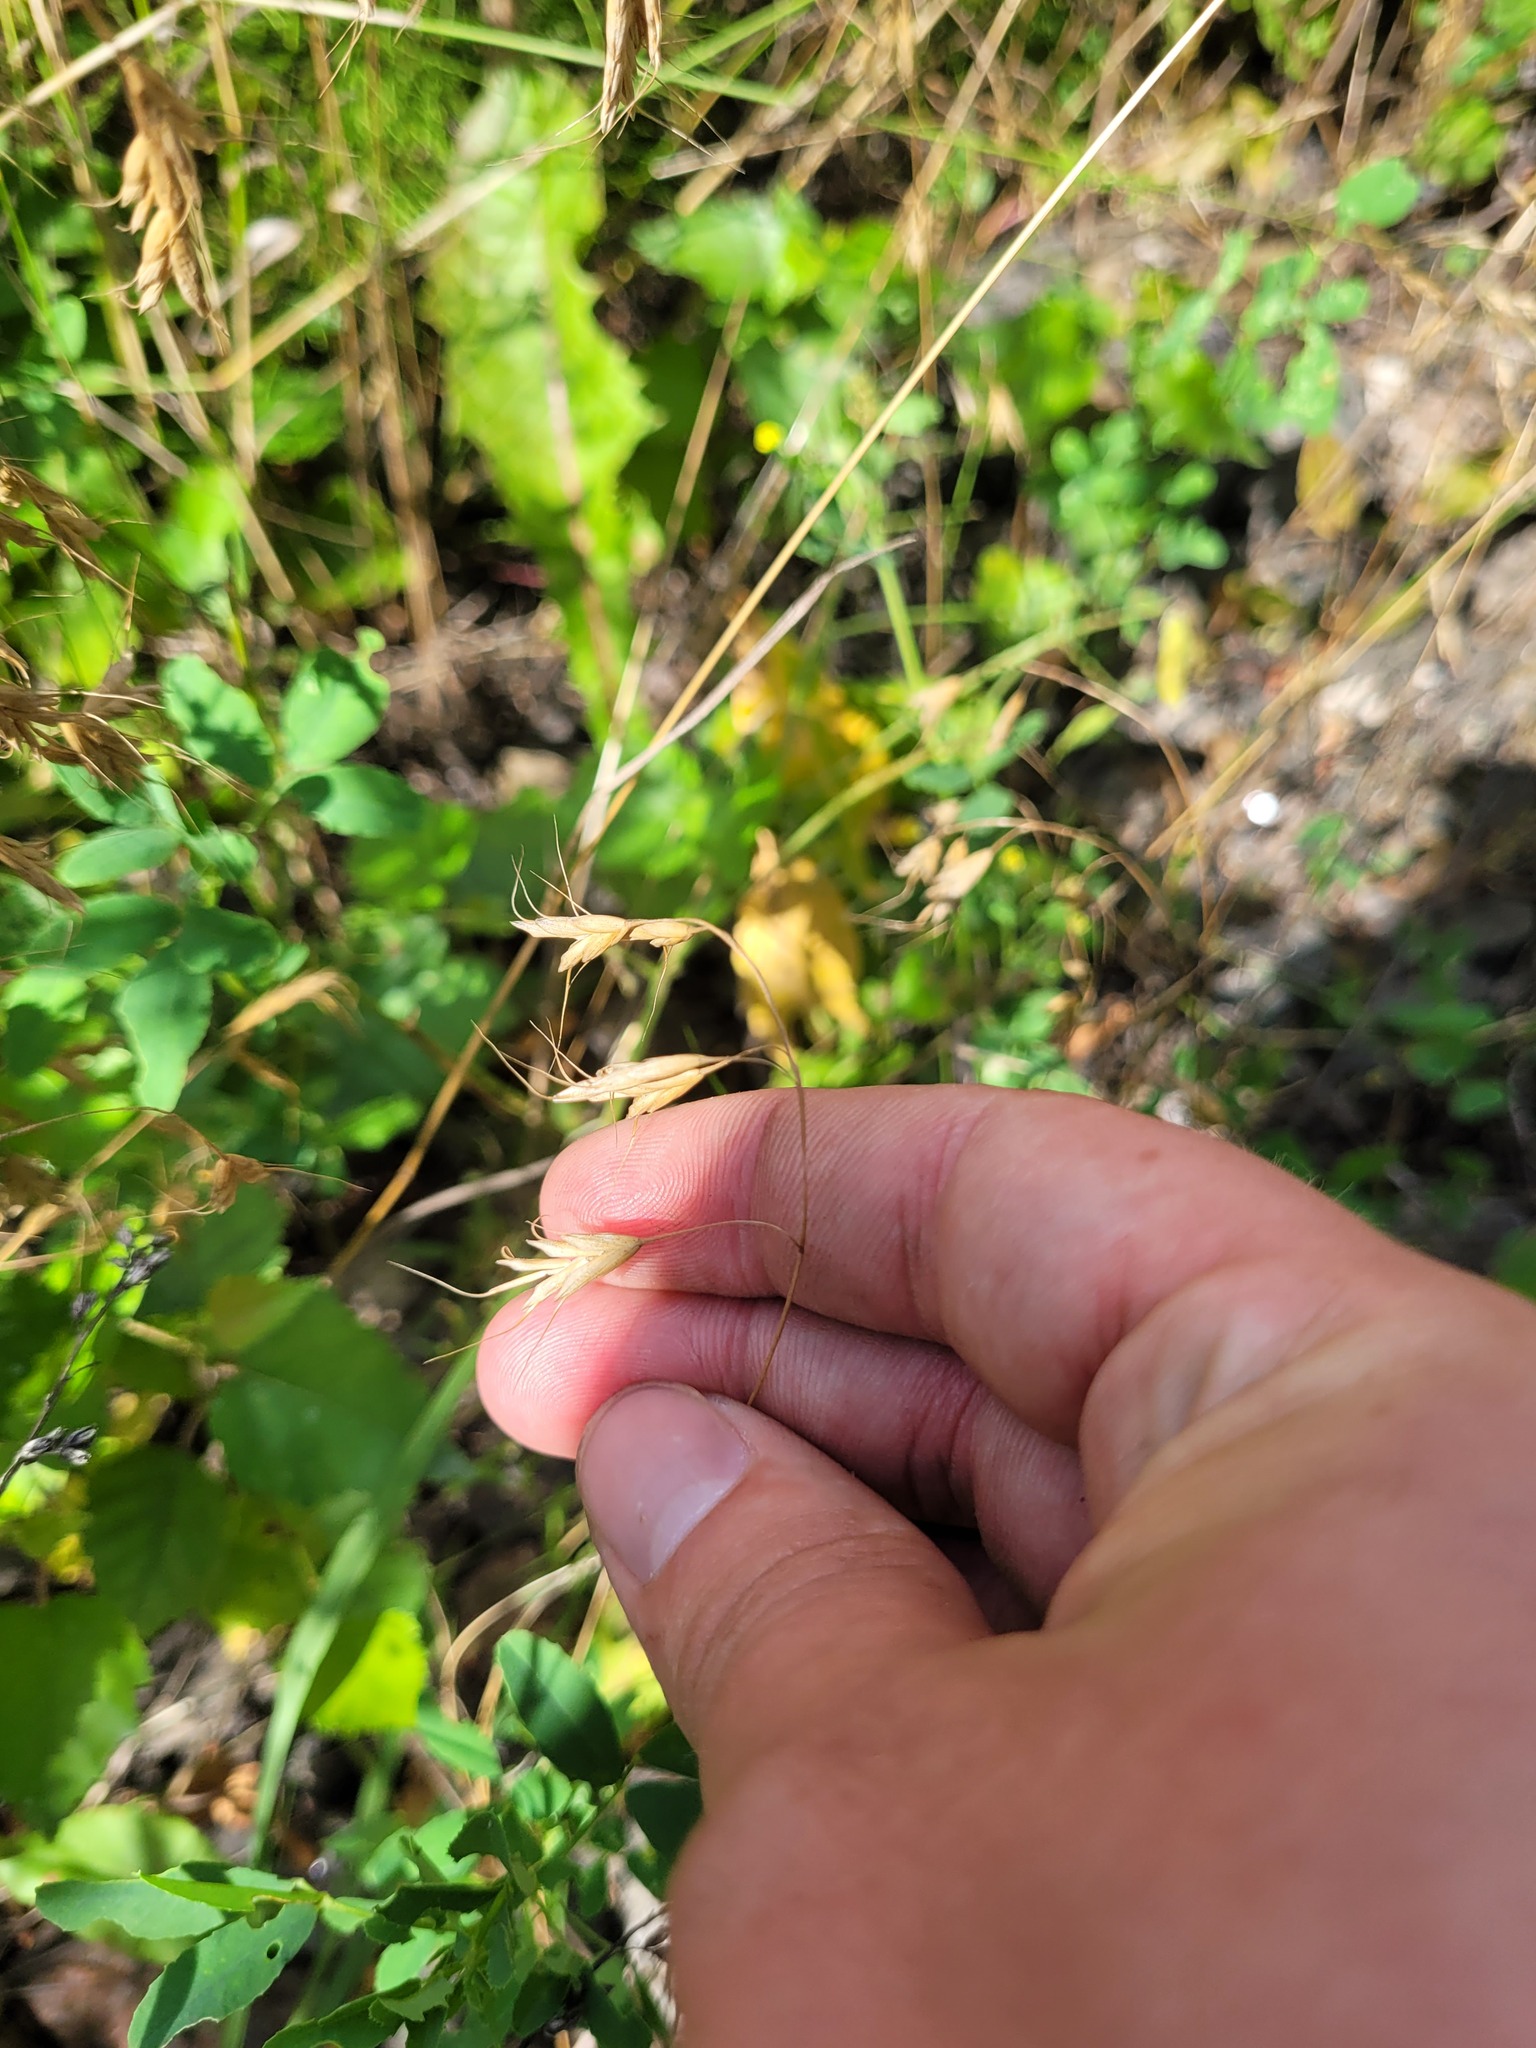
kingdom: Plantae
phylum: Tracheophyta
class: Liliopsida
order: Poales
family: Poaceae
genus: Bromus
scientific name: Bromus japonicus
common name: Japanese brome
